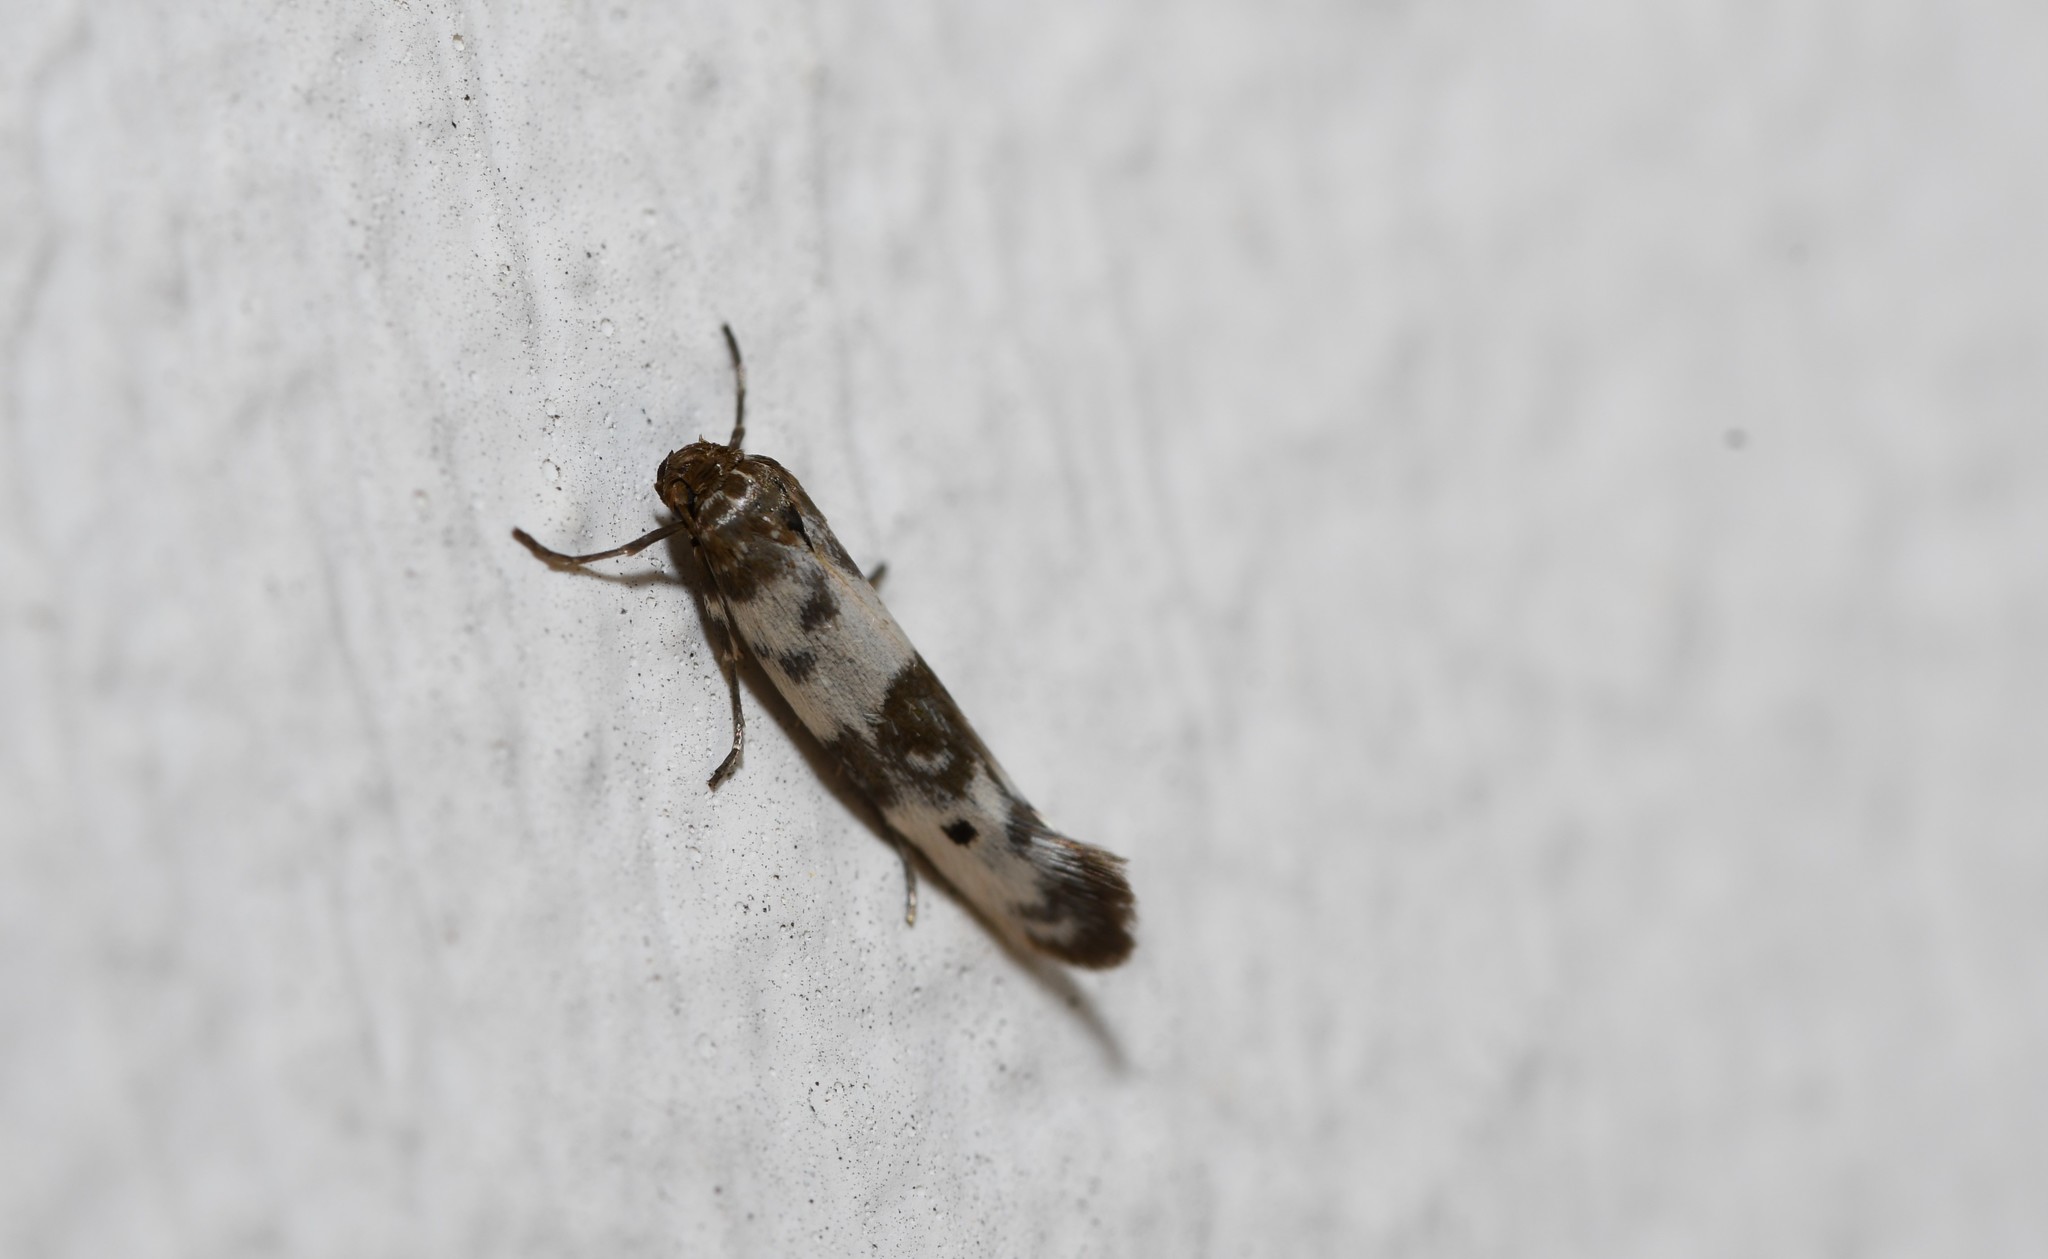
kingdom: Animalia
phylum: Arthropoda
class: Insecta
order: Lepidoptera
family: Scythrididae
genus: Enolmis
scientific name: Enolmis acanthella
